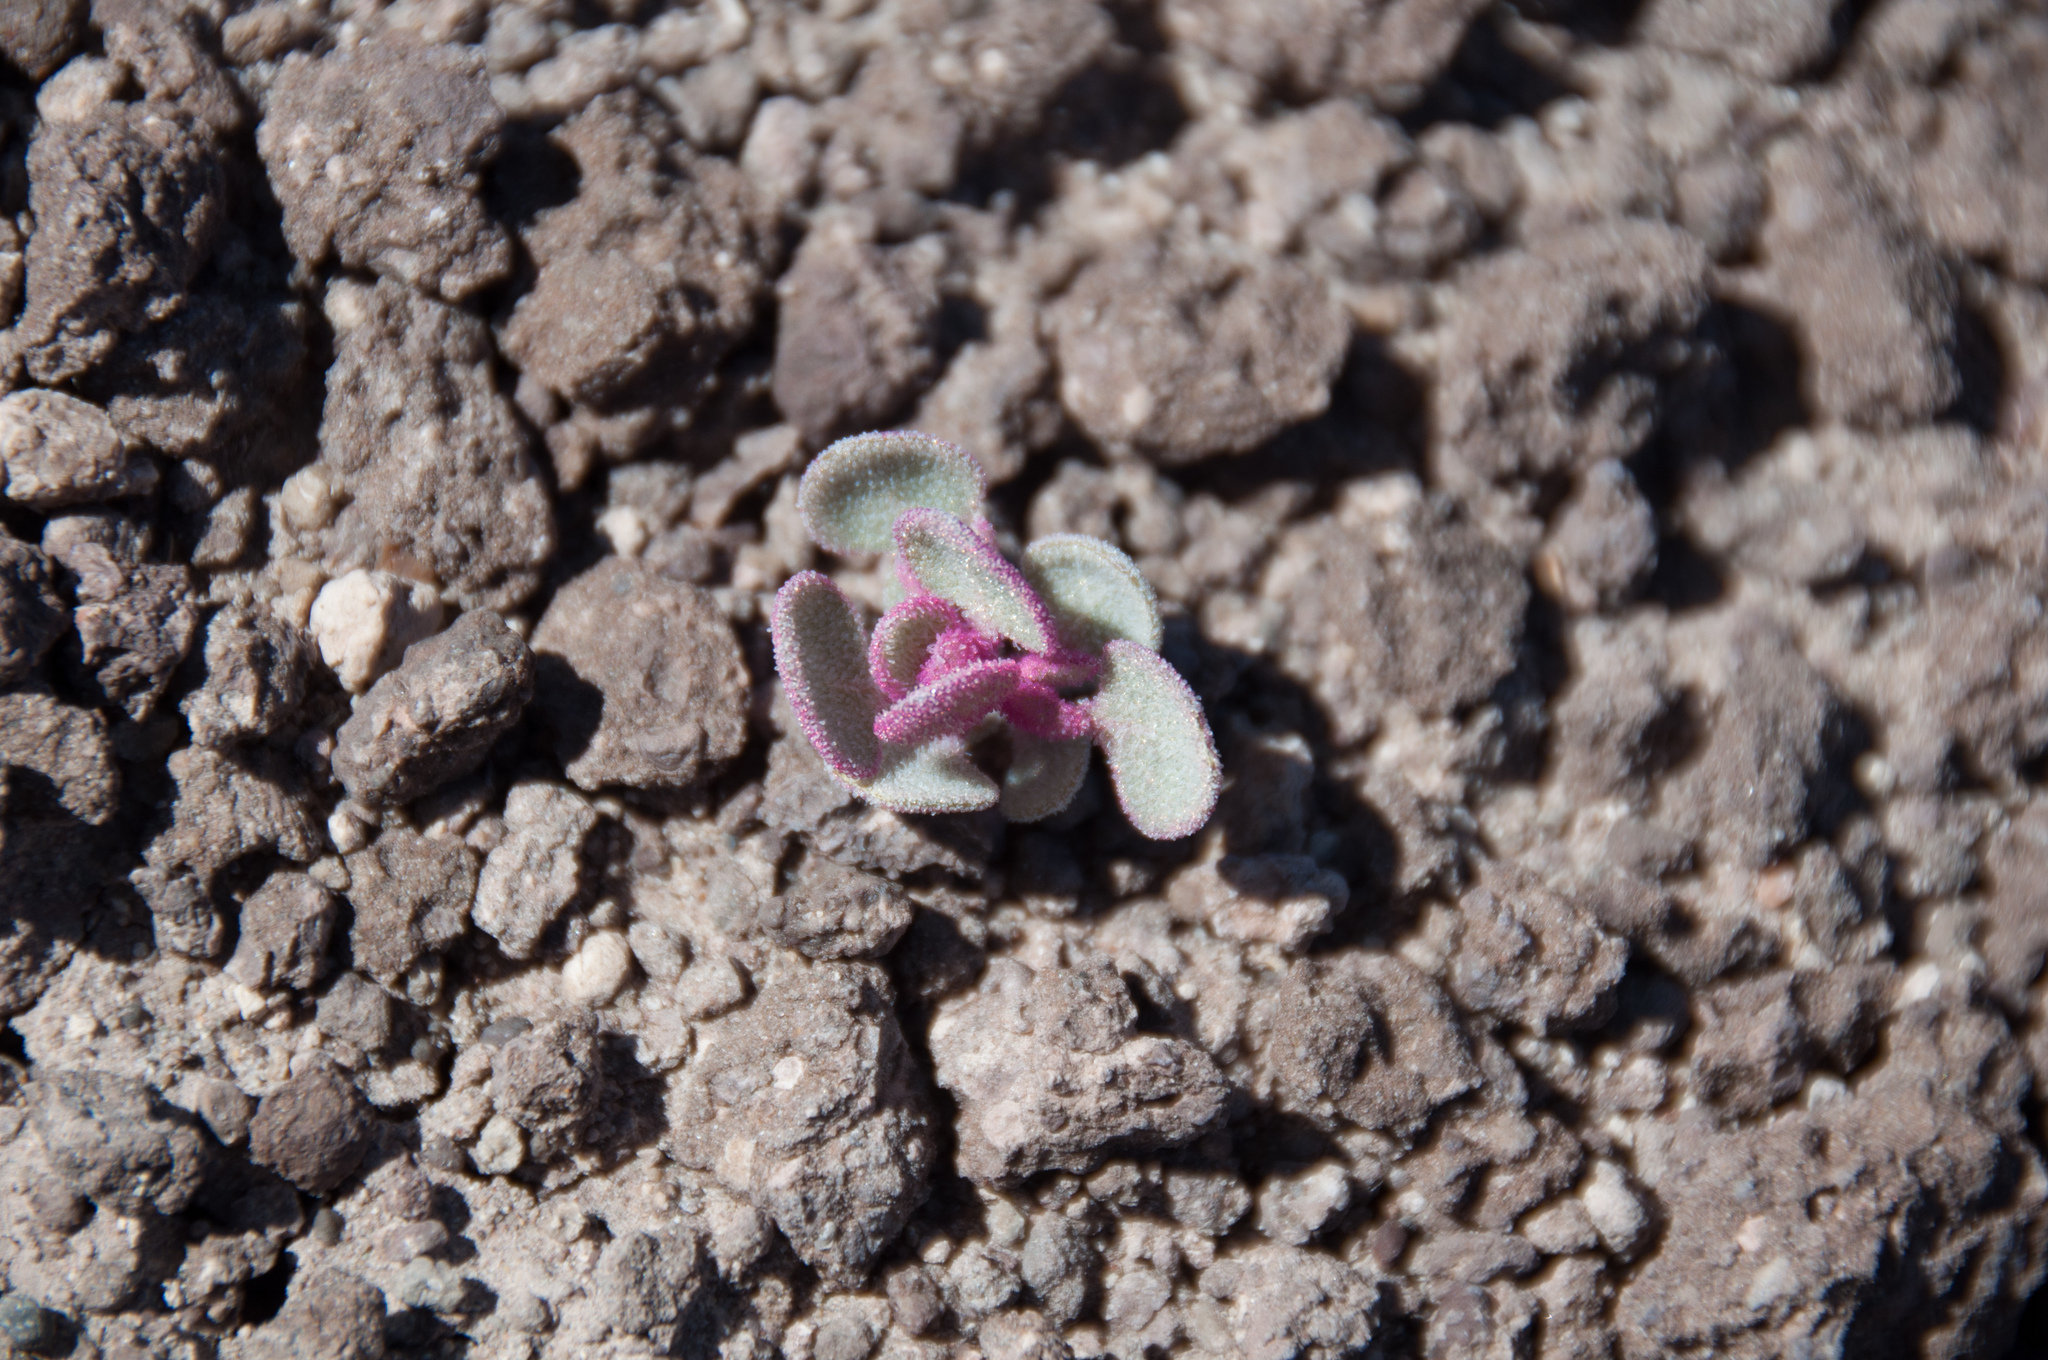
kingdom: Plantae
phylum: Tracheophyta
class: Magnoliopsida
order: Caryophyllales
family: Amaranthaceae
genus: Atriplex
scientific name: Atriplex saccaria
